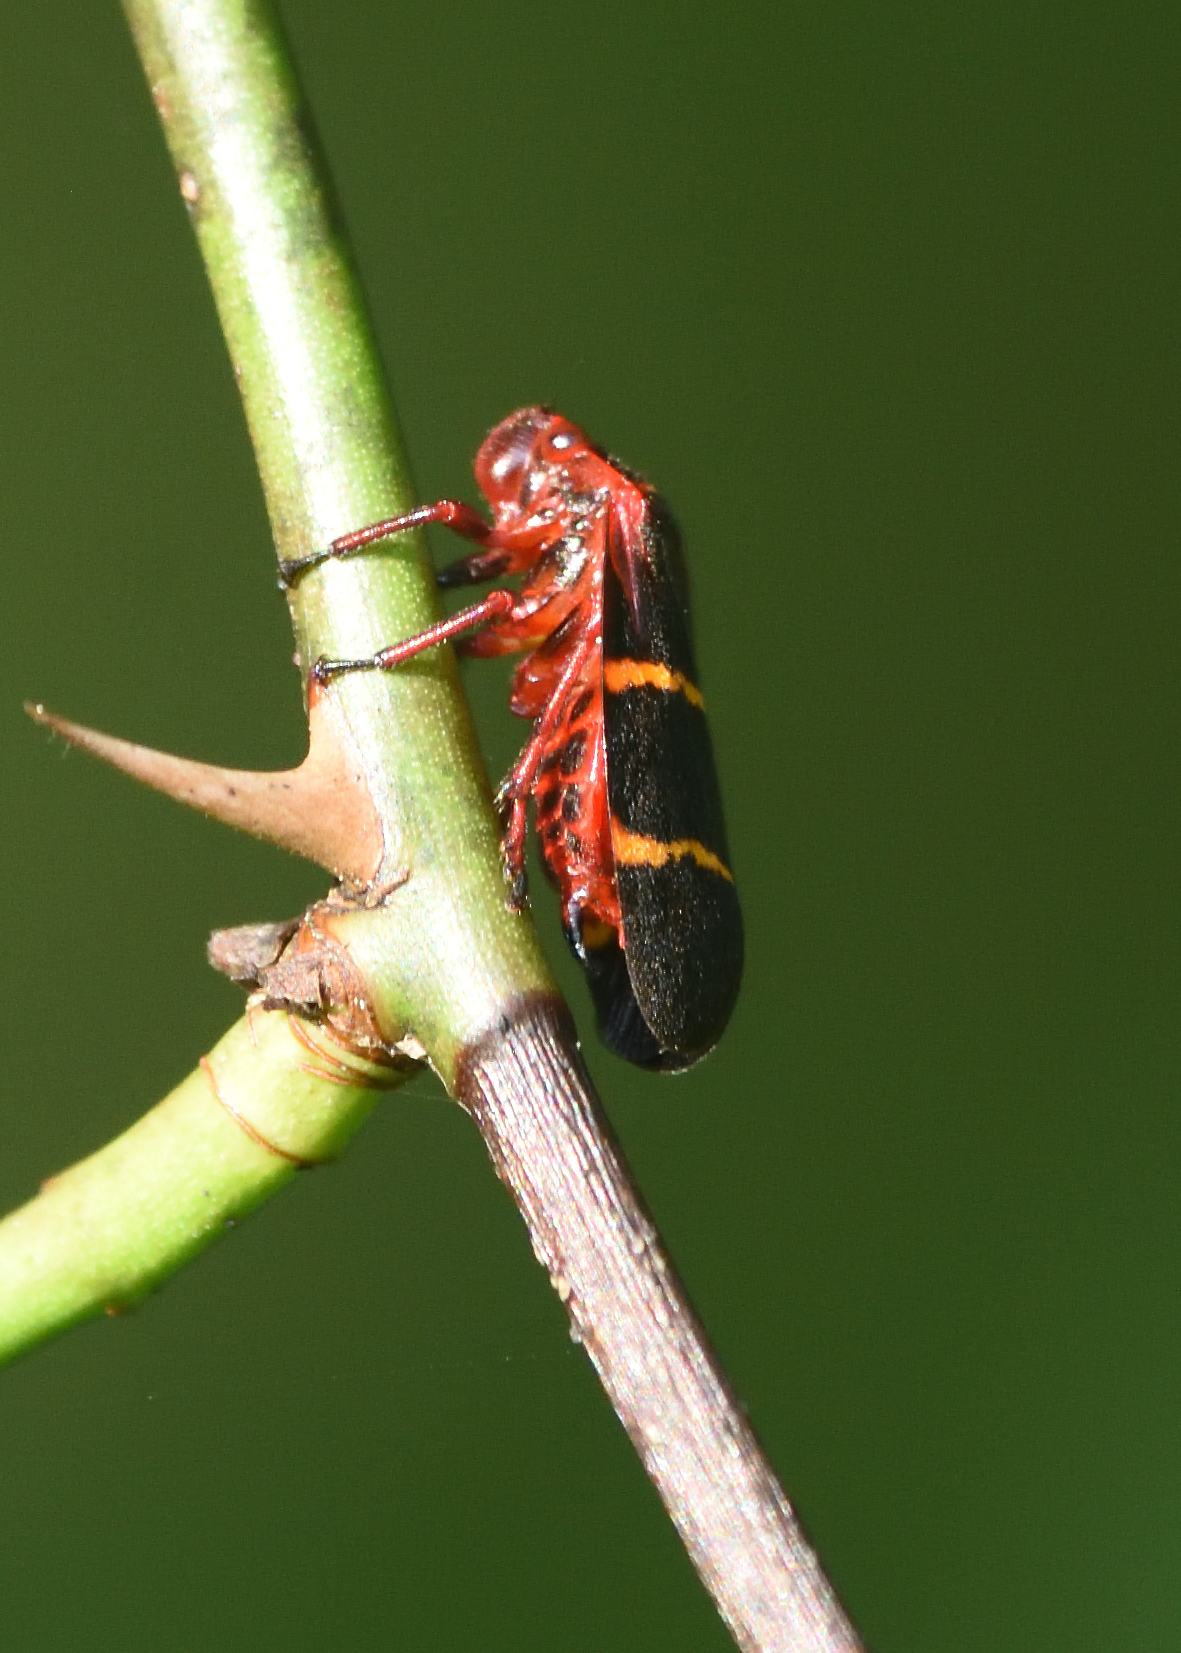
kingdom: Animalia
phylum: Arthropoda
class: Insecta
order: Hemiptera
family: Cercopidae
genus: Prosapia
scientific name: Prosapia bicincta
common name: Twolined spittlebug
